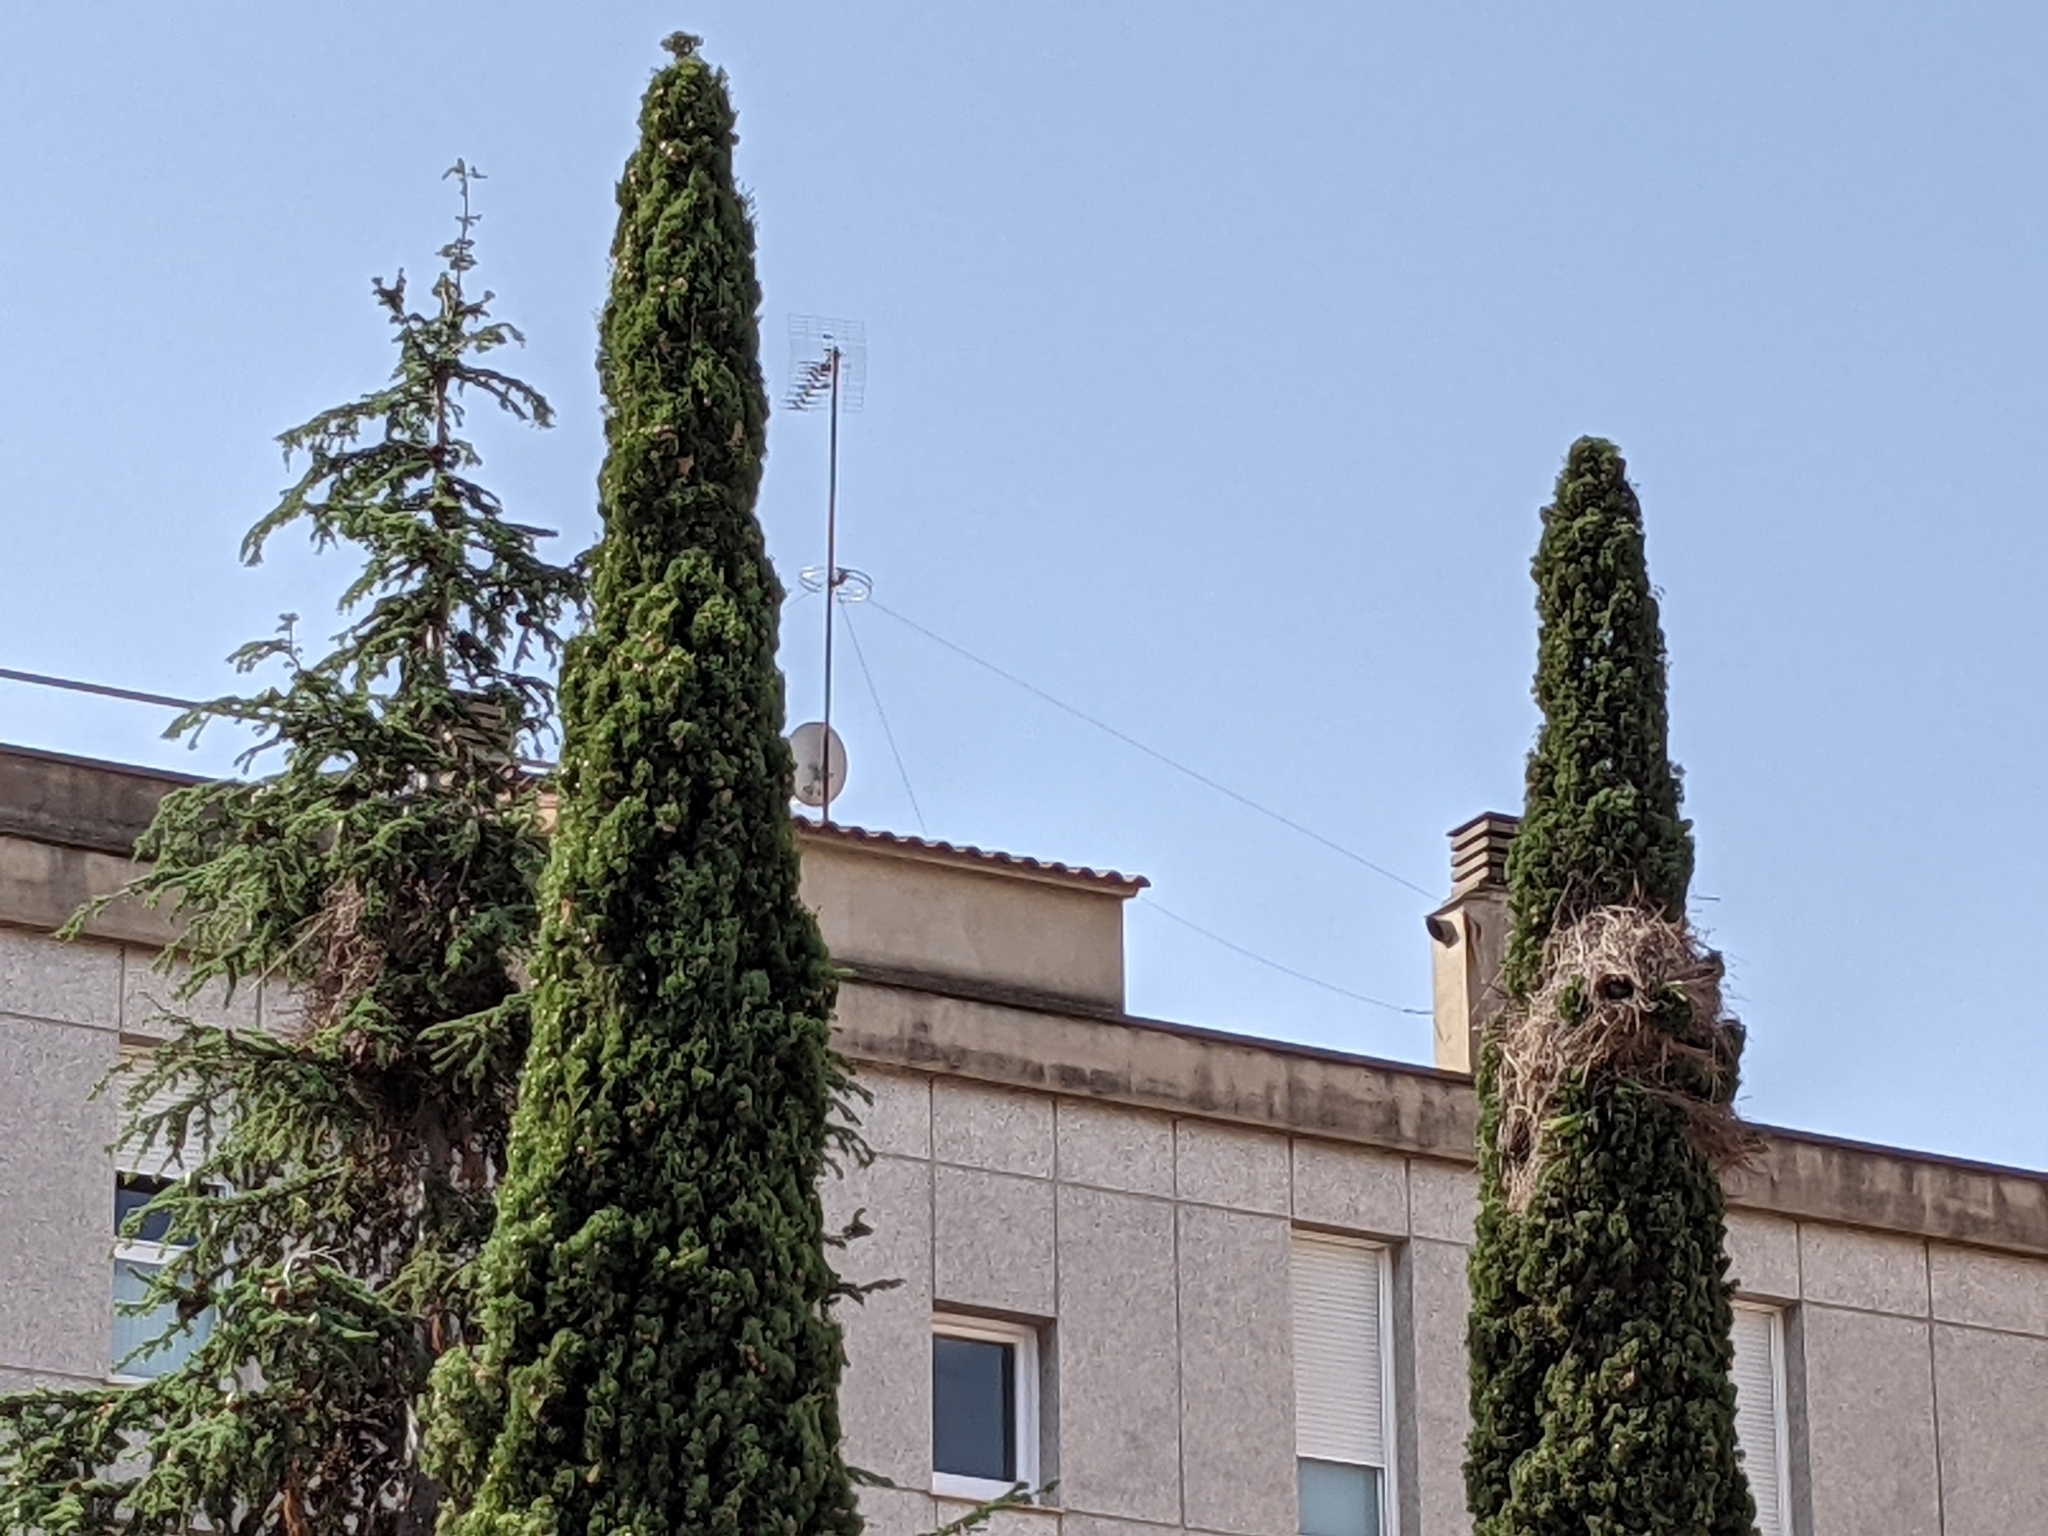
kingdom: Animalia
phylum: Chordata
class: Aves
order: Psittaciformes
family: Psittacidae
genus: Myiopsitta
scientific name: Myiopsitta monachus
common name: Monk parakeet
